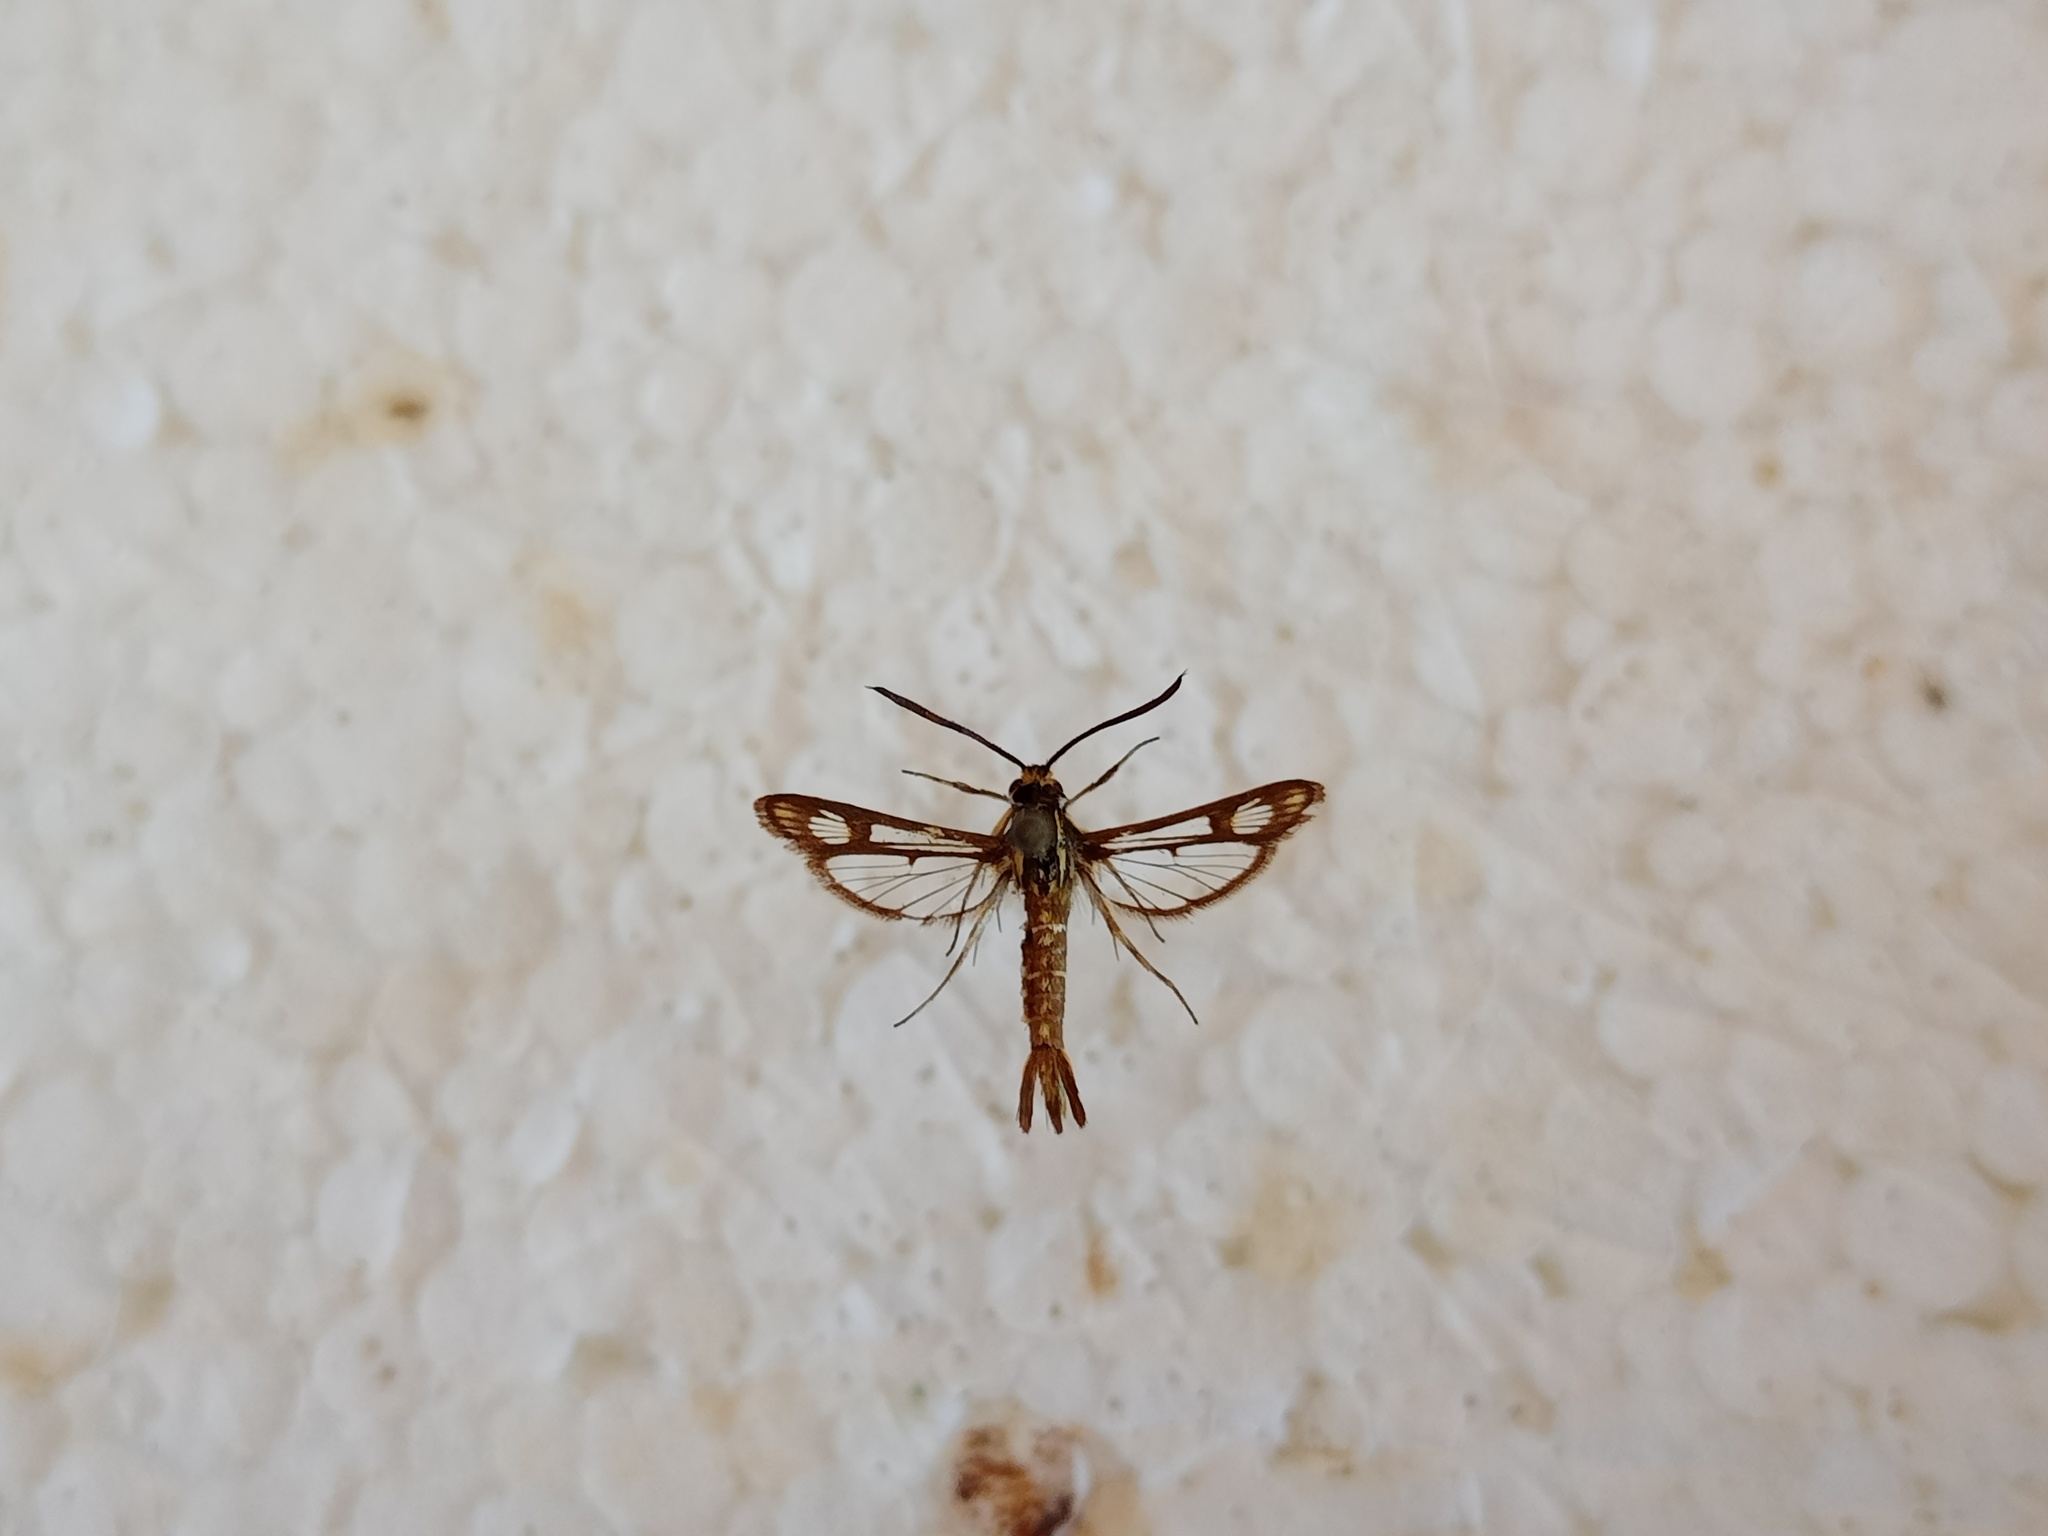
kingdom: Animalia
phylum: Arthropoda
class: Insecta
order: Lepidoptera
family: Sesiidae
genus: Pyropteron
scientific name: Pyropteron triannuliformis
